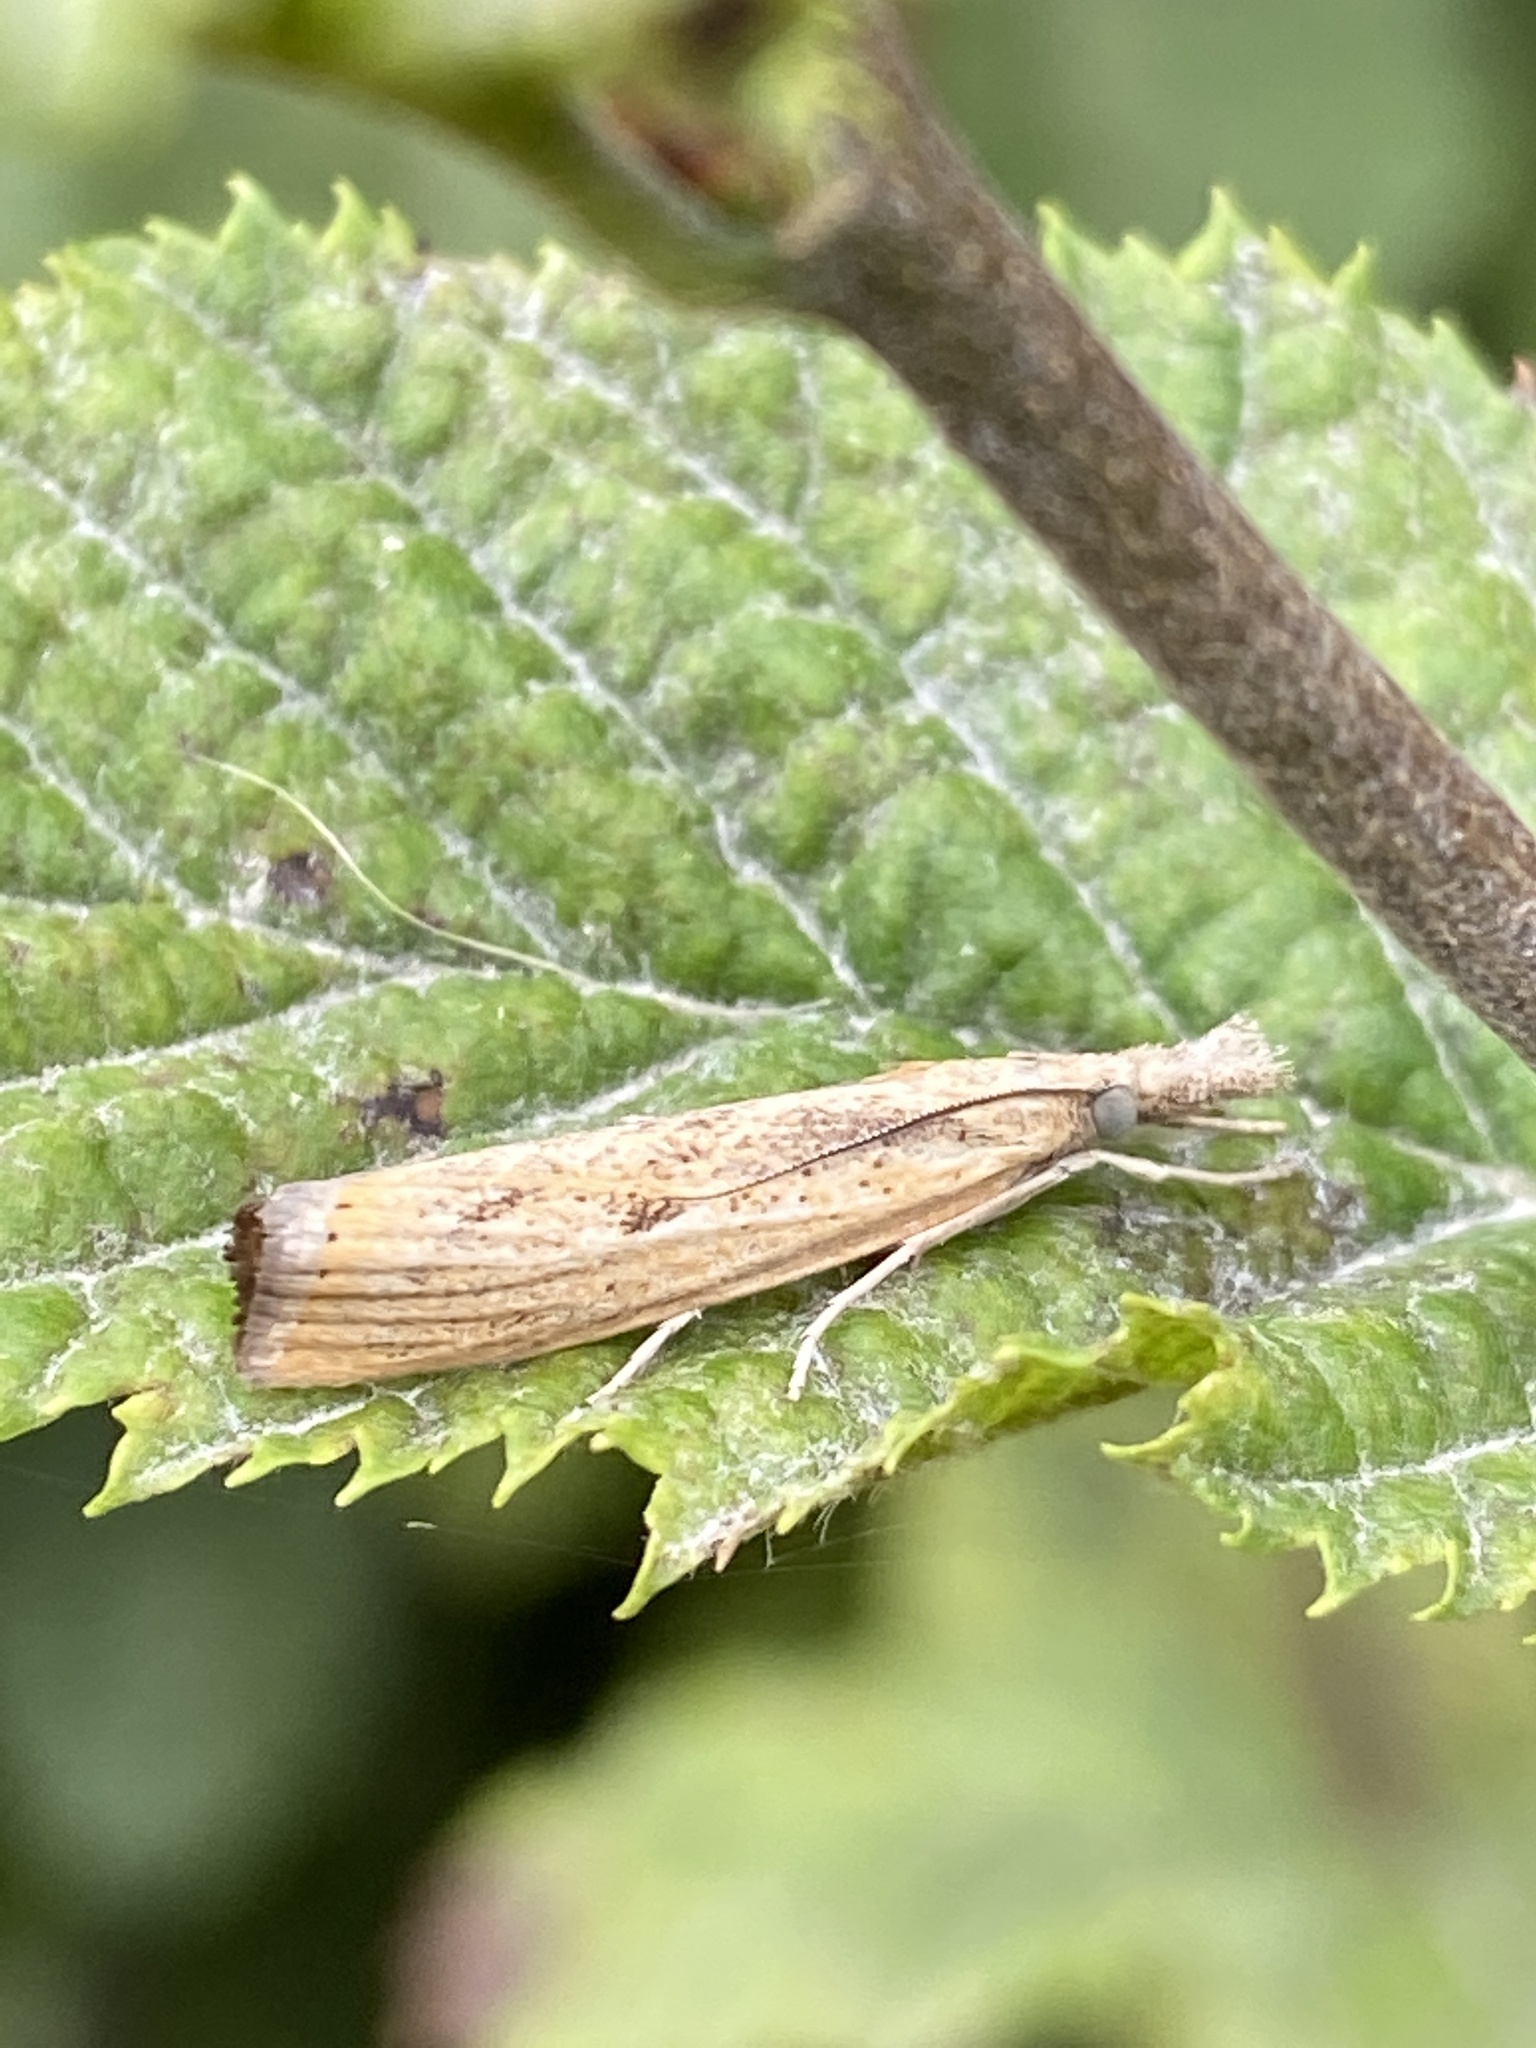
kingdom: Animalia
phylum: Arthropoda
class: Insecta
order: Lepidoptera
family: Crambidae
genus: Agriphila
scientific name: Agriphila inquinatella
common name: Barred grass-veneer
